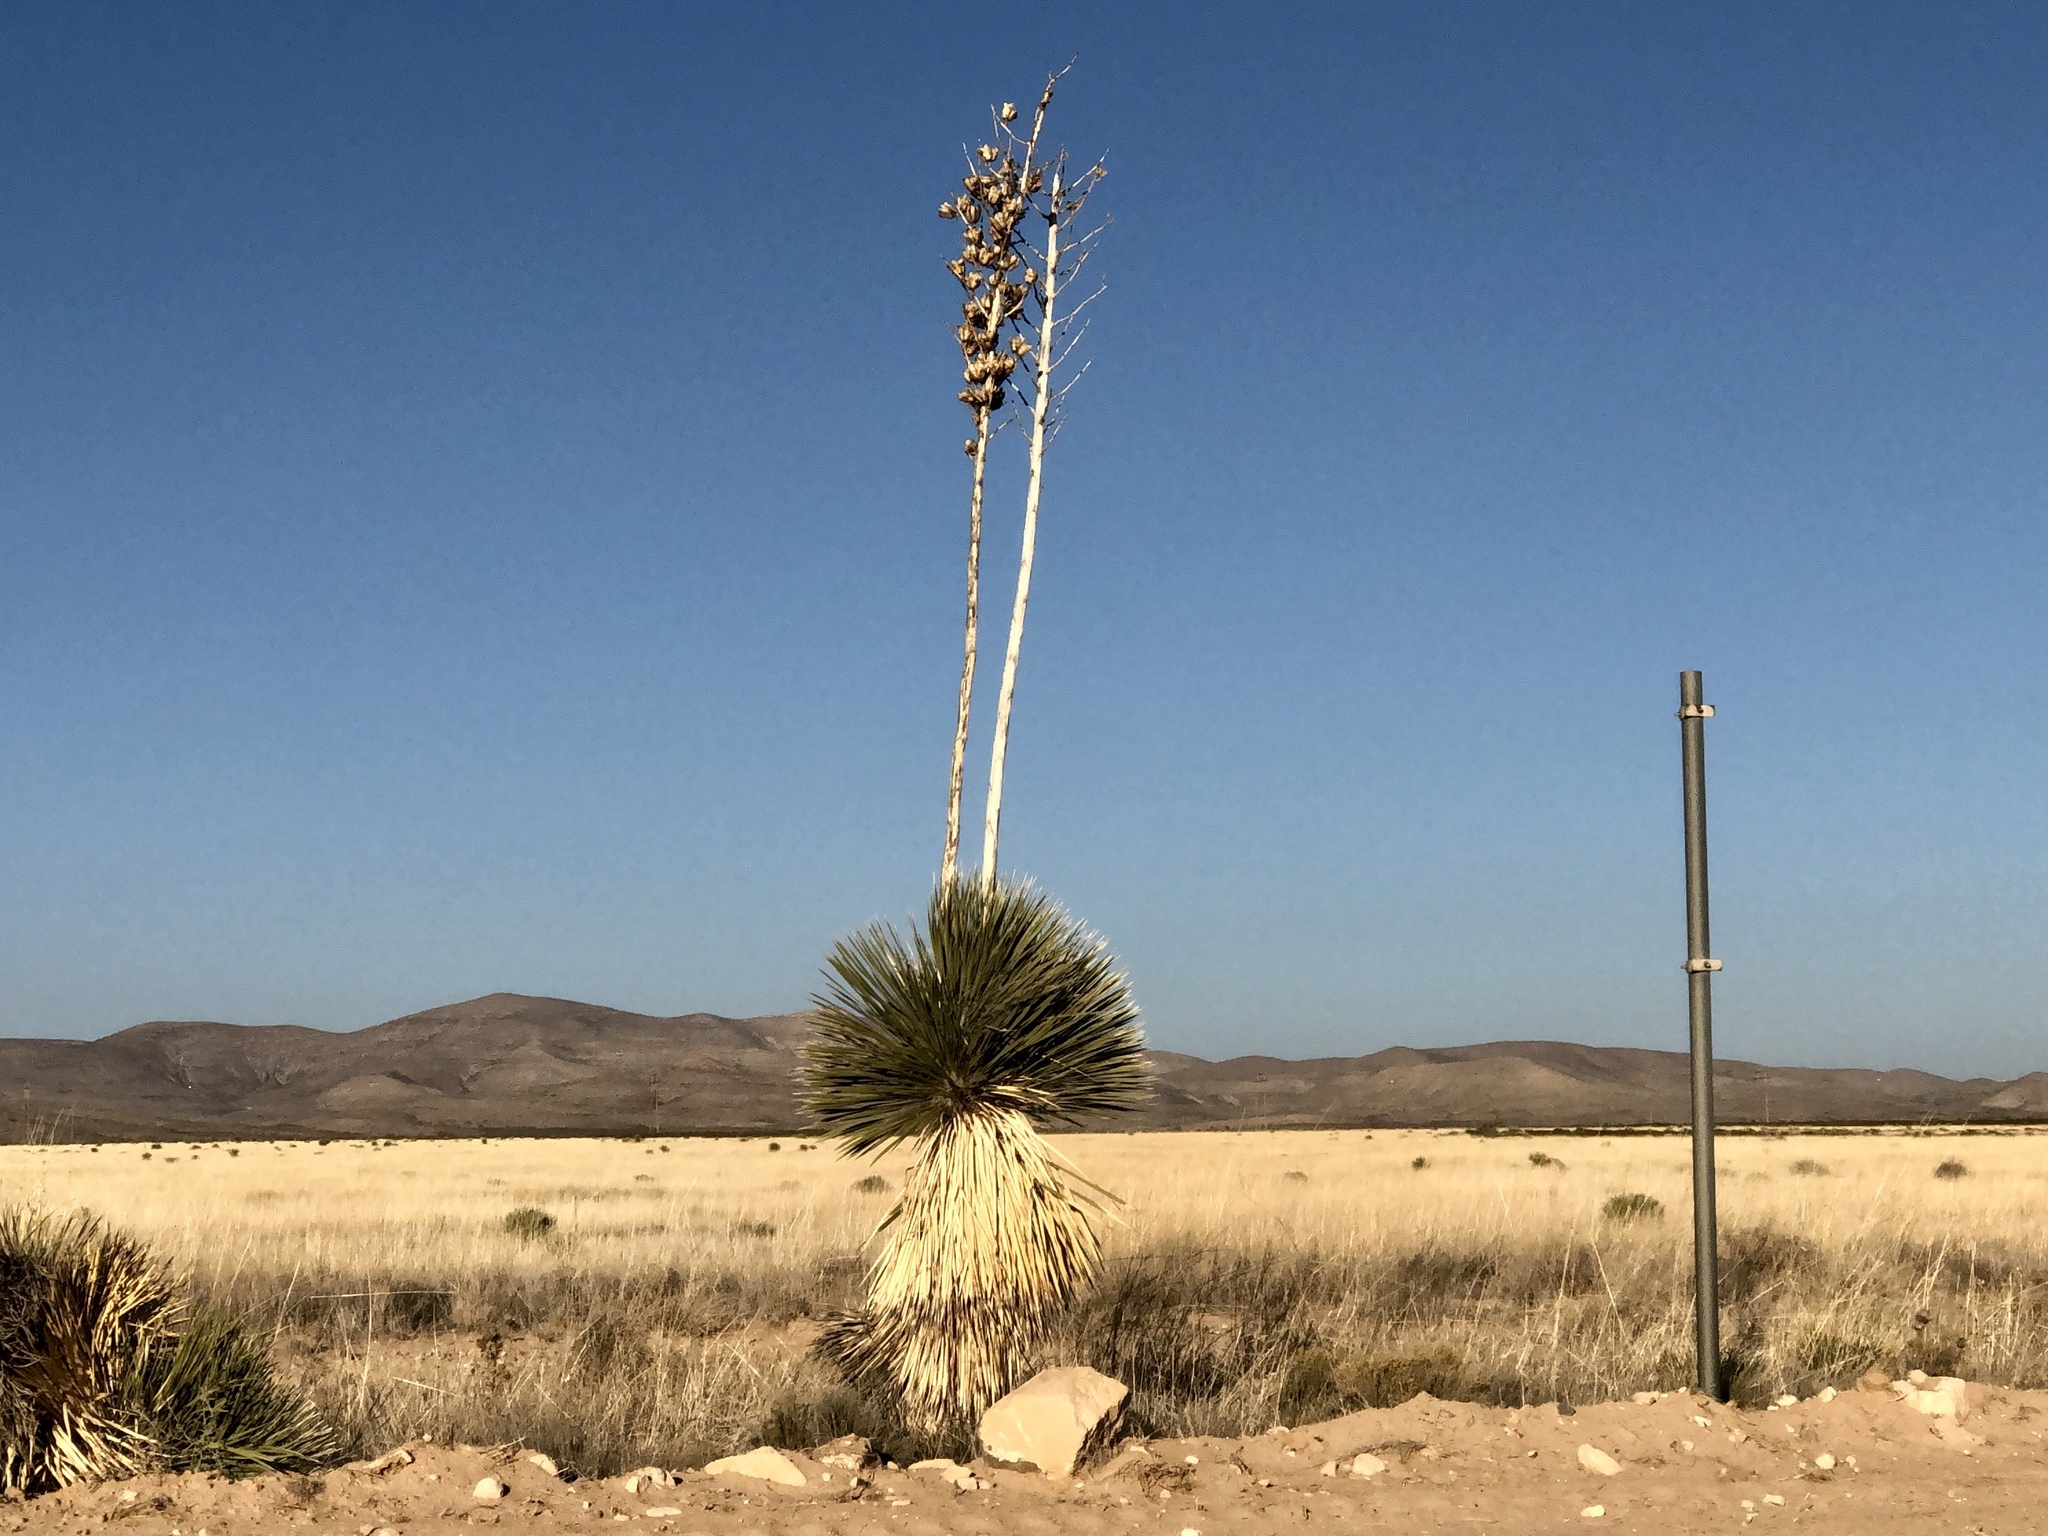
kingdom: Plantae
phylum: Tracheophyta
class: Liliopsida
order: Asparagales
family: Asparagaceae
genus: Yucca
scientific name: Yucca elata
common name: Palmella
